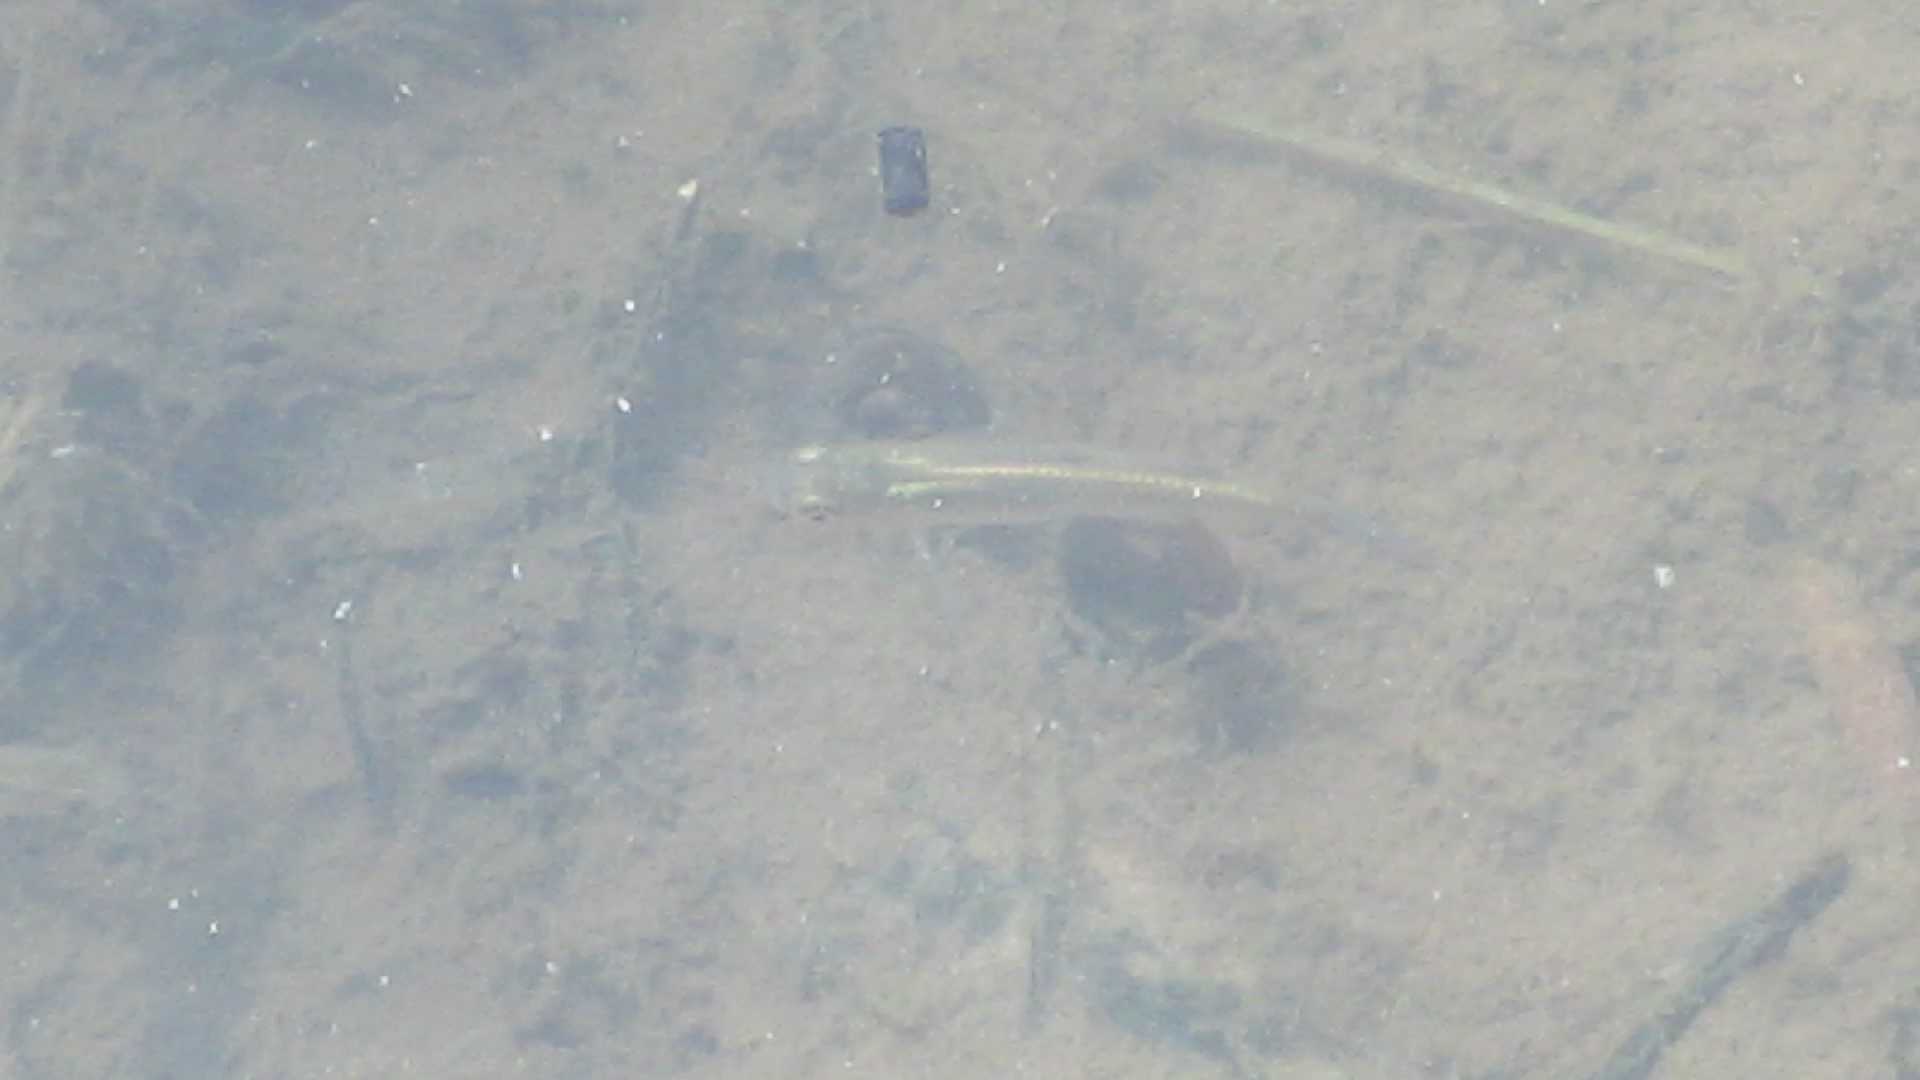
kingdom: Animalia
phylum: Chordata
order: Cyprinodontiformes
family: Poeciliidae
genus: Gambusia
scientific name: Gambusia holbrooki
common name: Eastern mosquitofish
